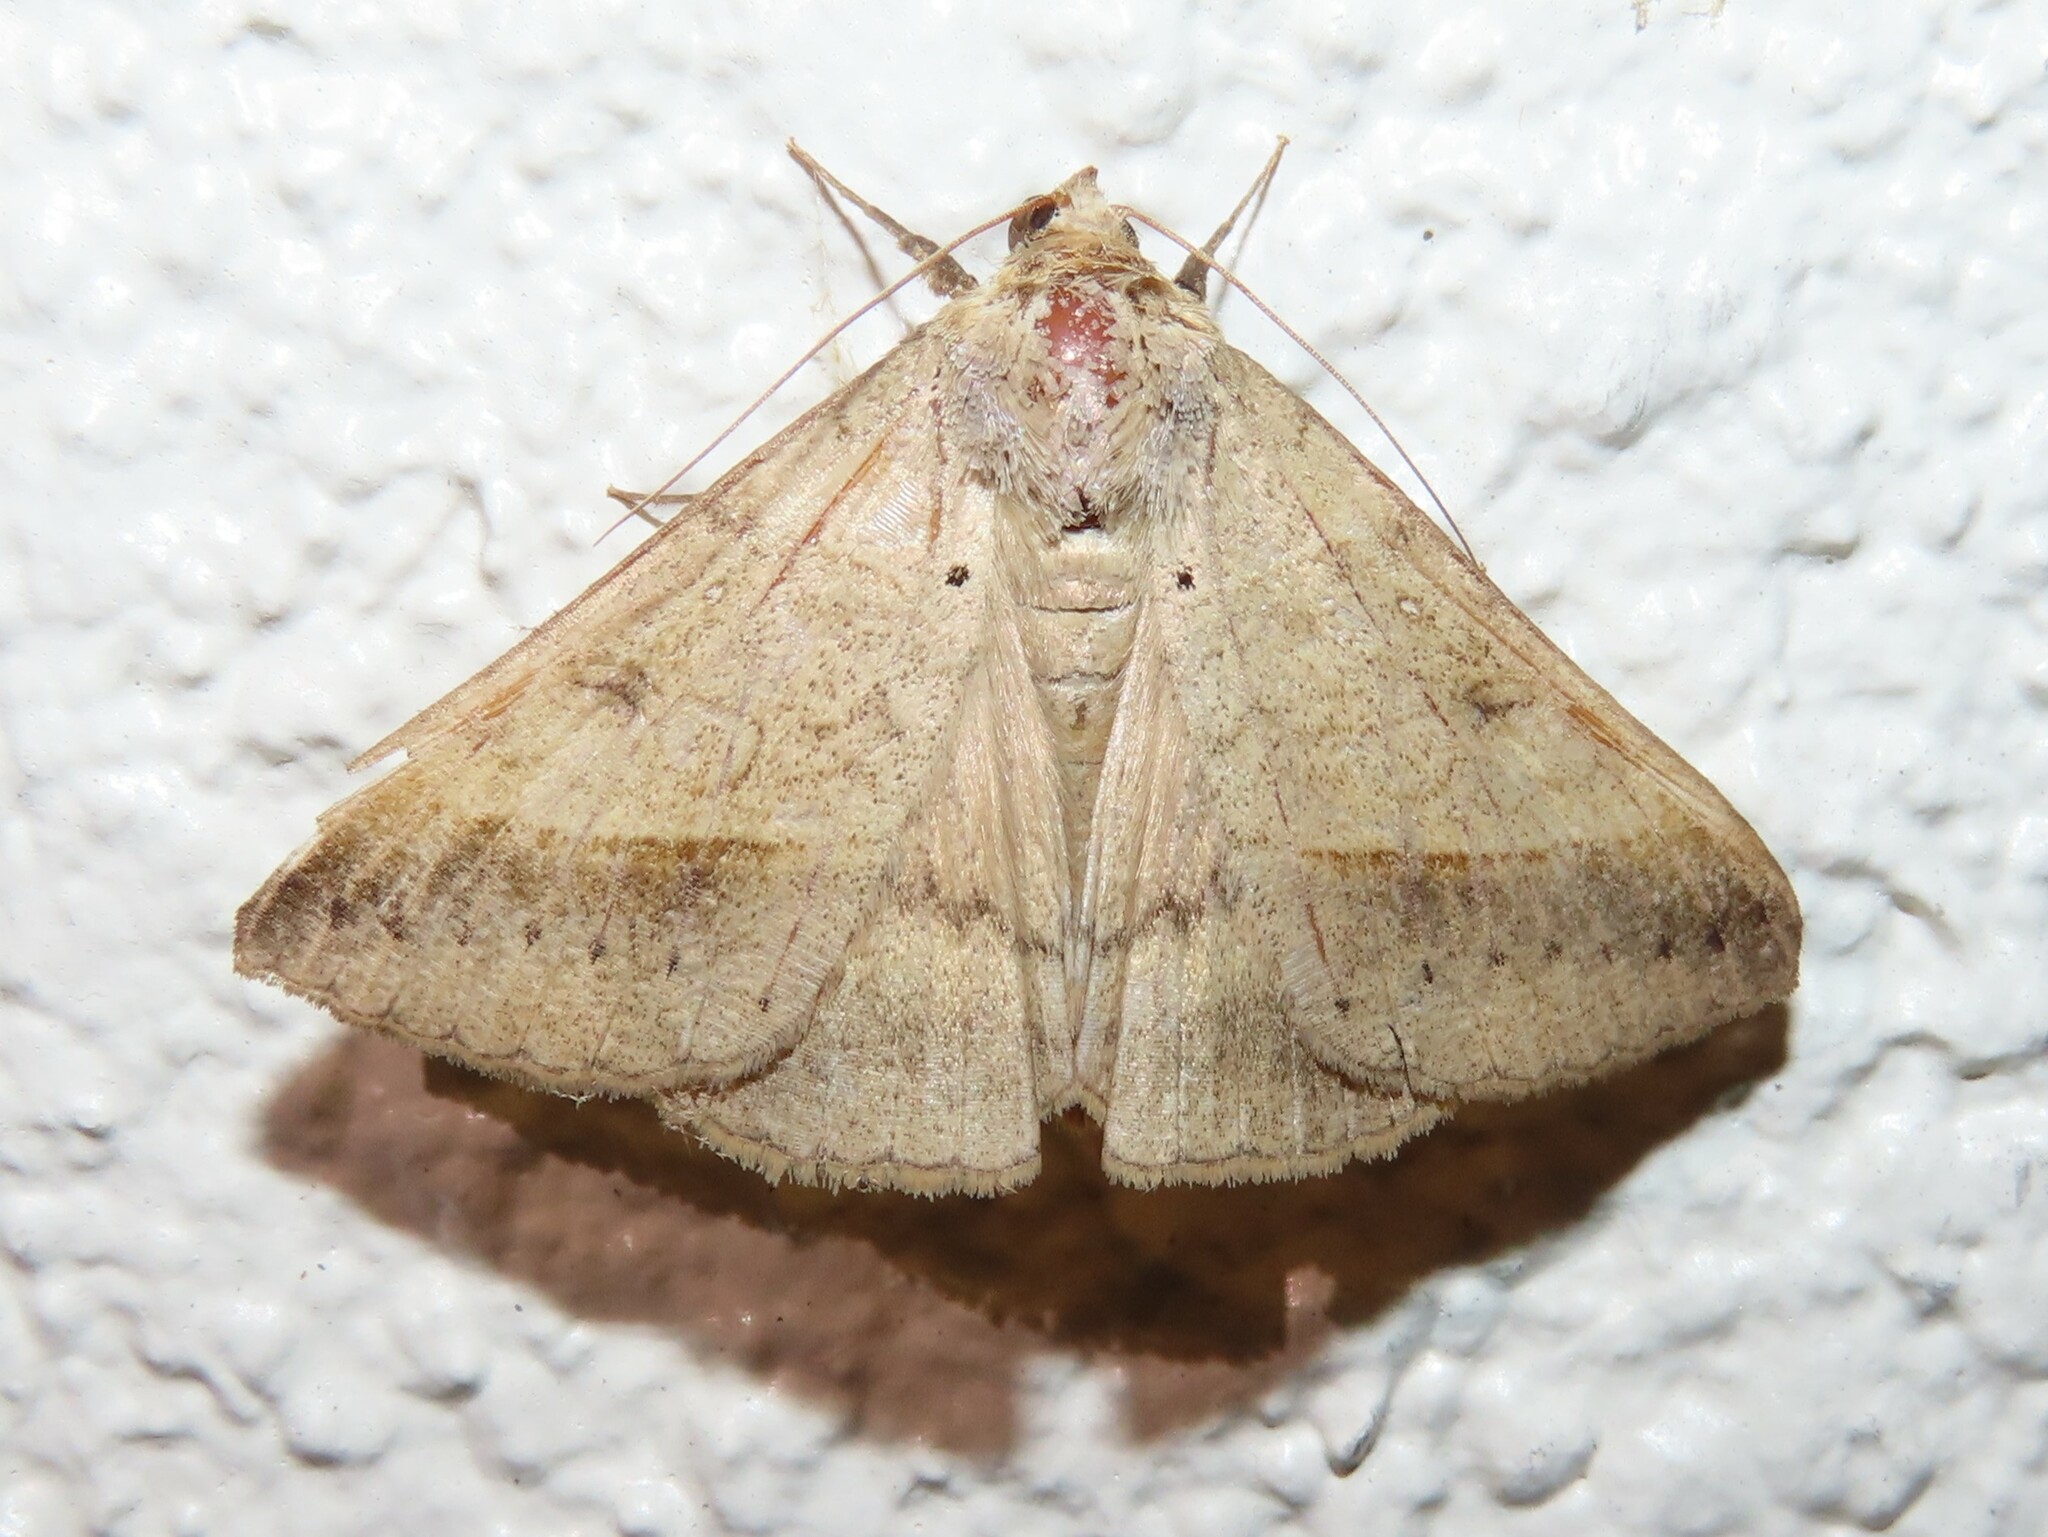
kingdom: Animalia
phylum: Arthropoda
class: Insecta
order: Lepidoptera
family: Erebidae
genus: Mocis
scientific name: Mocis disseverans
